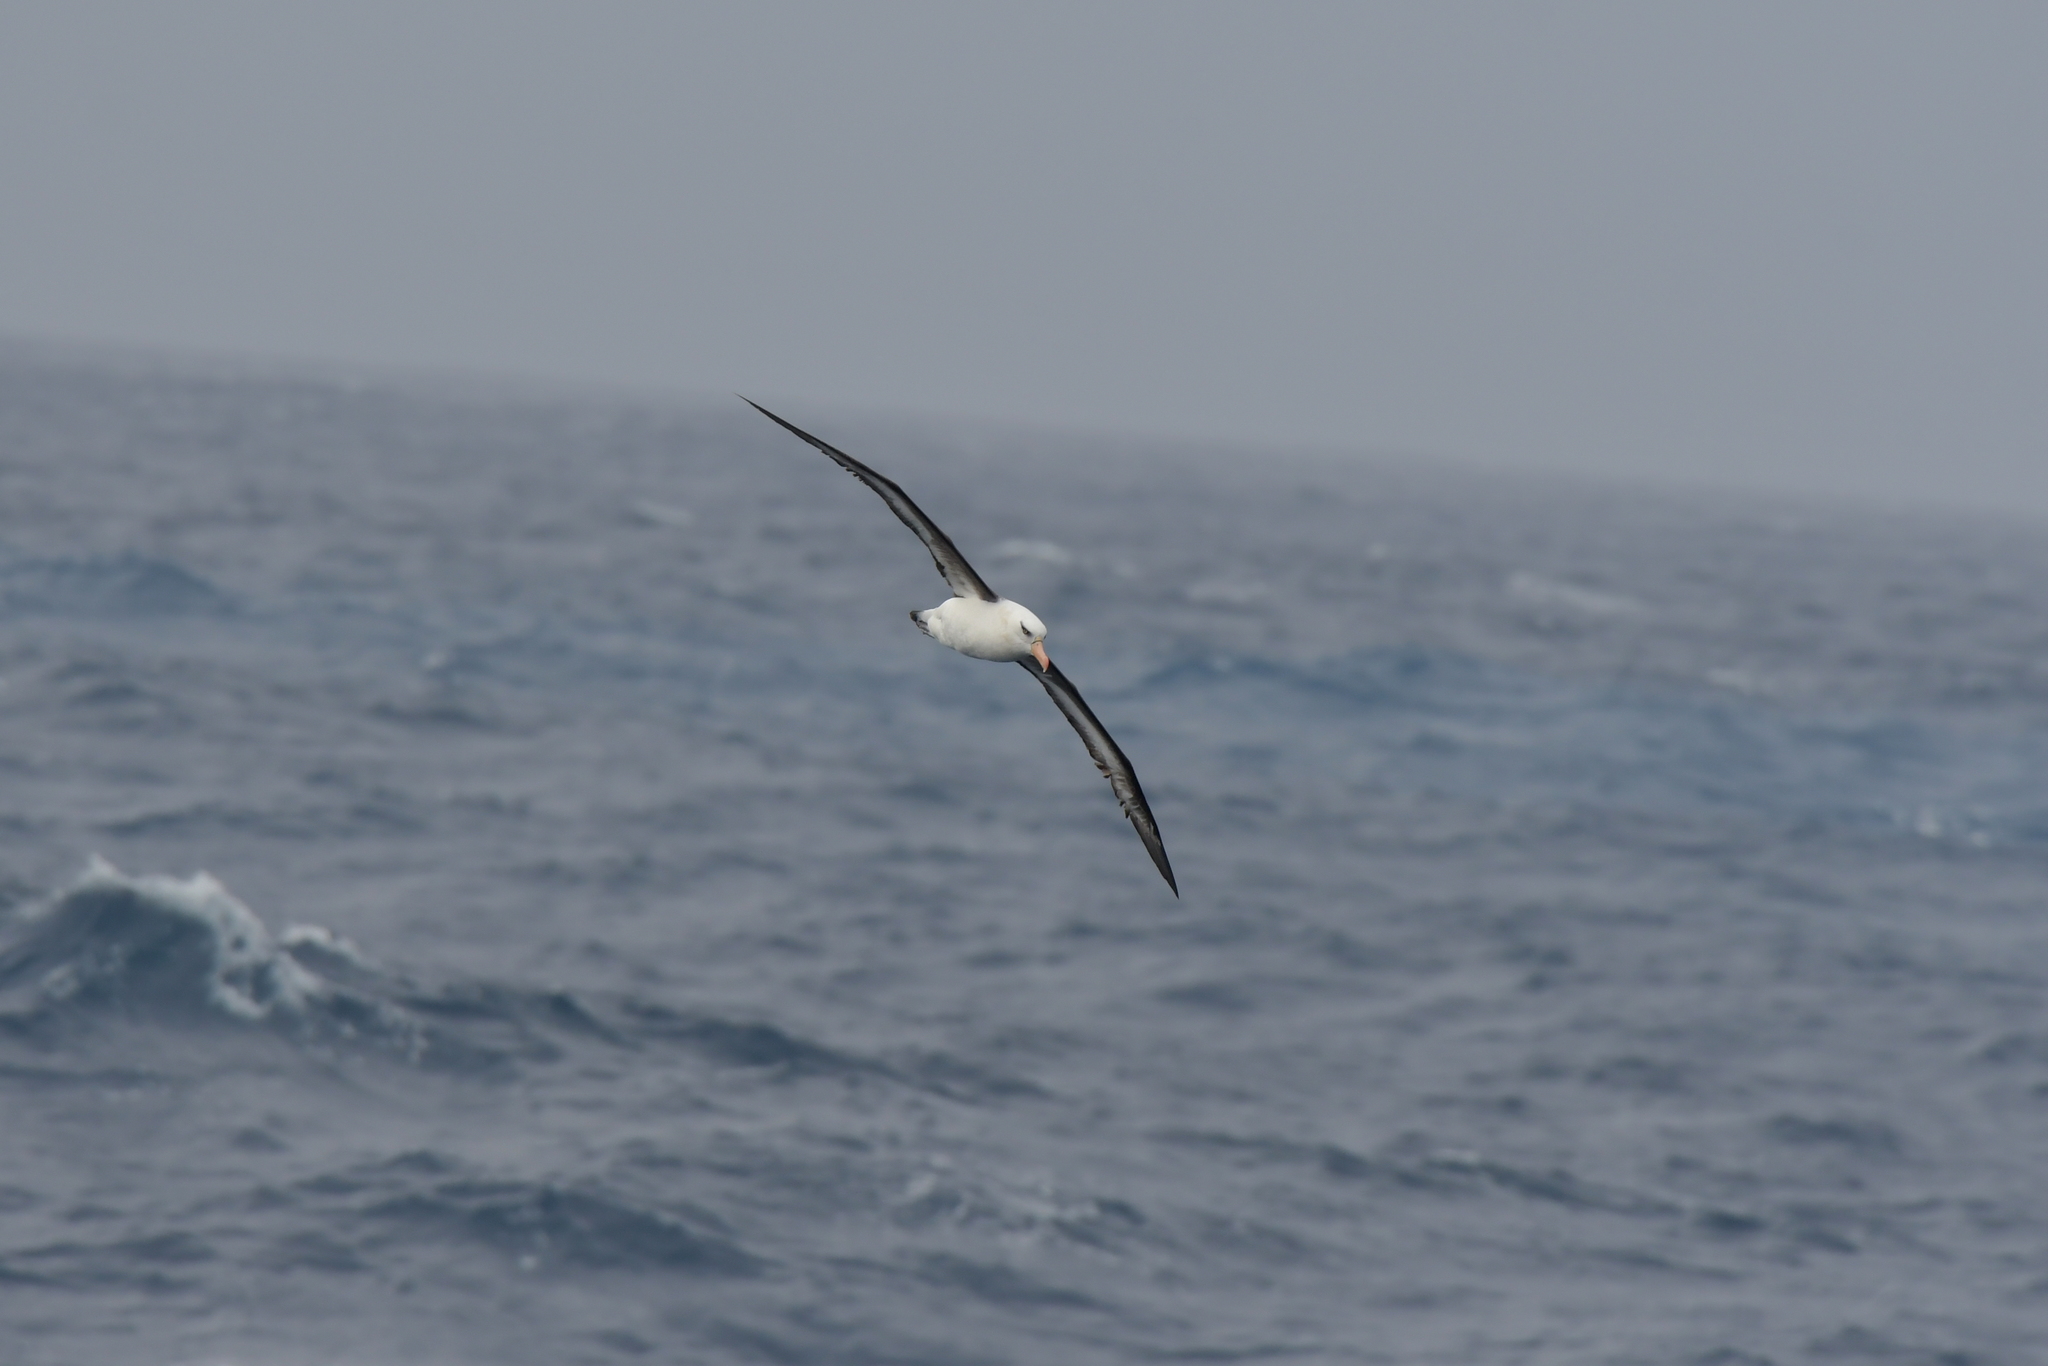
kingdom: Animalia
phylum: Chordata
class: Aves
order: Procellariiformes
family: Diomedeidae
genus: Thalassarche
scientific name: Thalassarche impavida
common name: Campbell albatross
